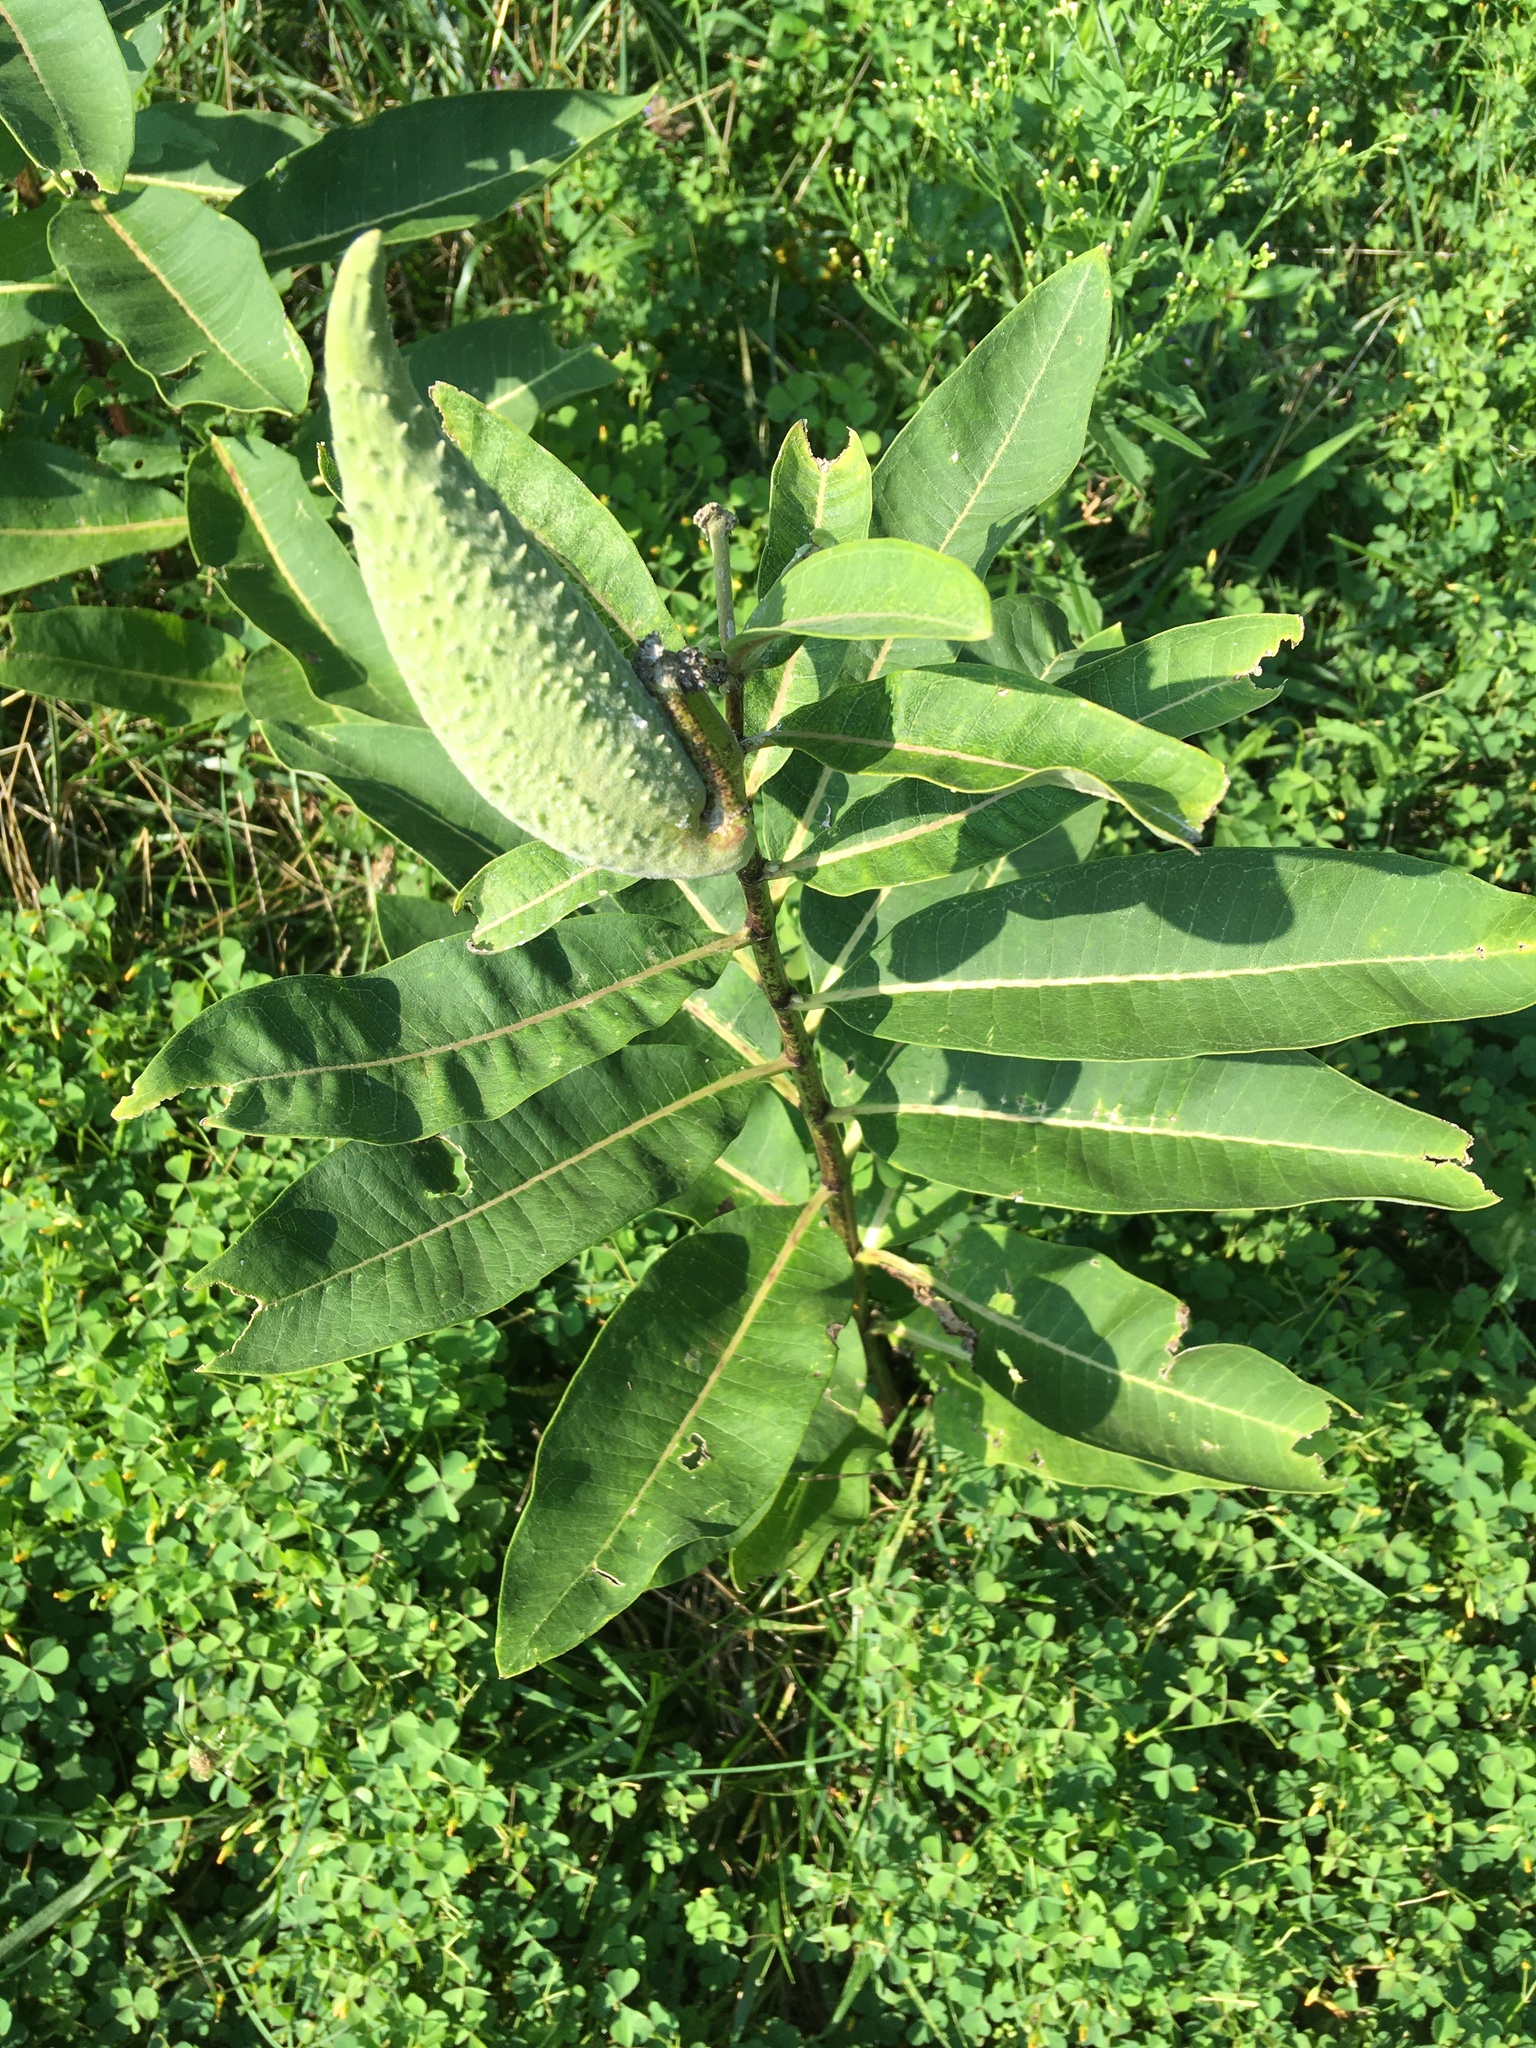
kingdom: Plantae
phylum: Tracheophyta
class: Magnoliopsida
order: Gentianales
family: Apocynaceae
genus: Asclepias
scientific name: Asclepias syriaca
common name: Common milkweed
